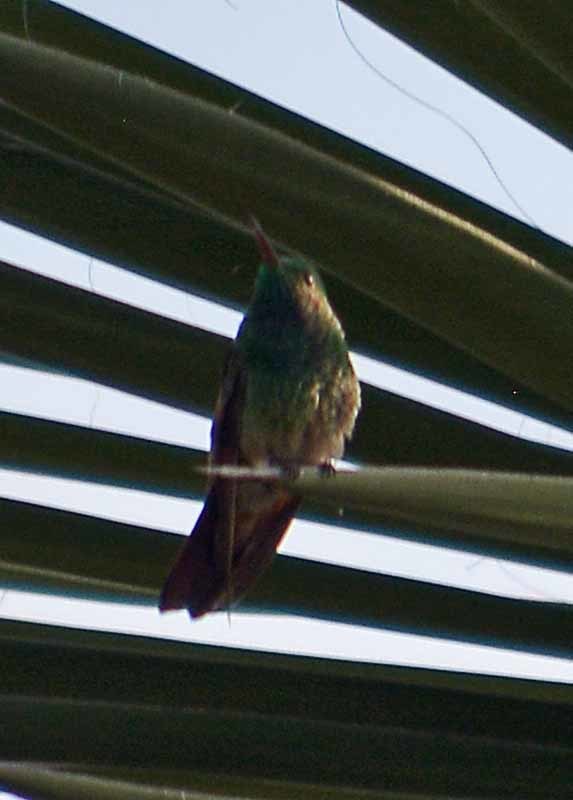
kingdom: Animalia
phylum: Chordata
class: Aves
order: Apodiformes
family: Trochilidae
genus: Saucerottia
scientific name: Saucerottia beryllina
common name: Berylline hummingbird
